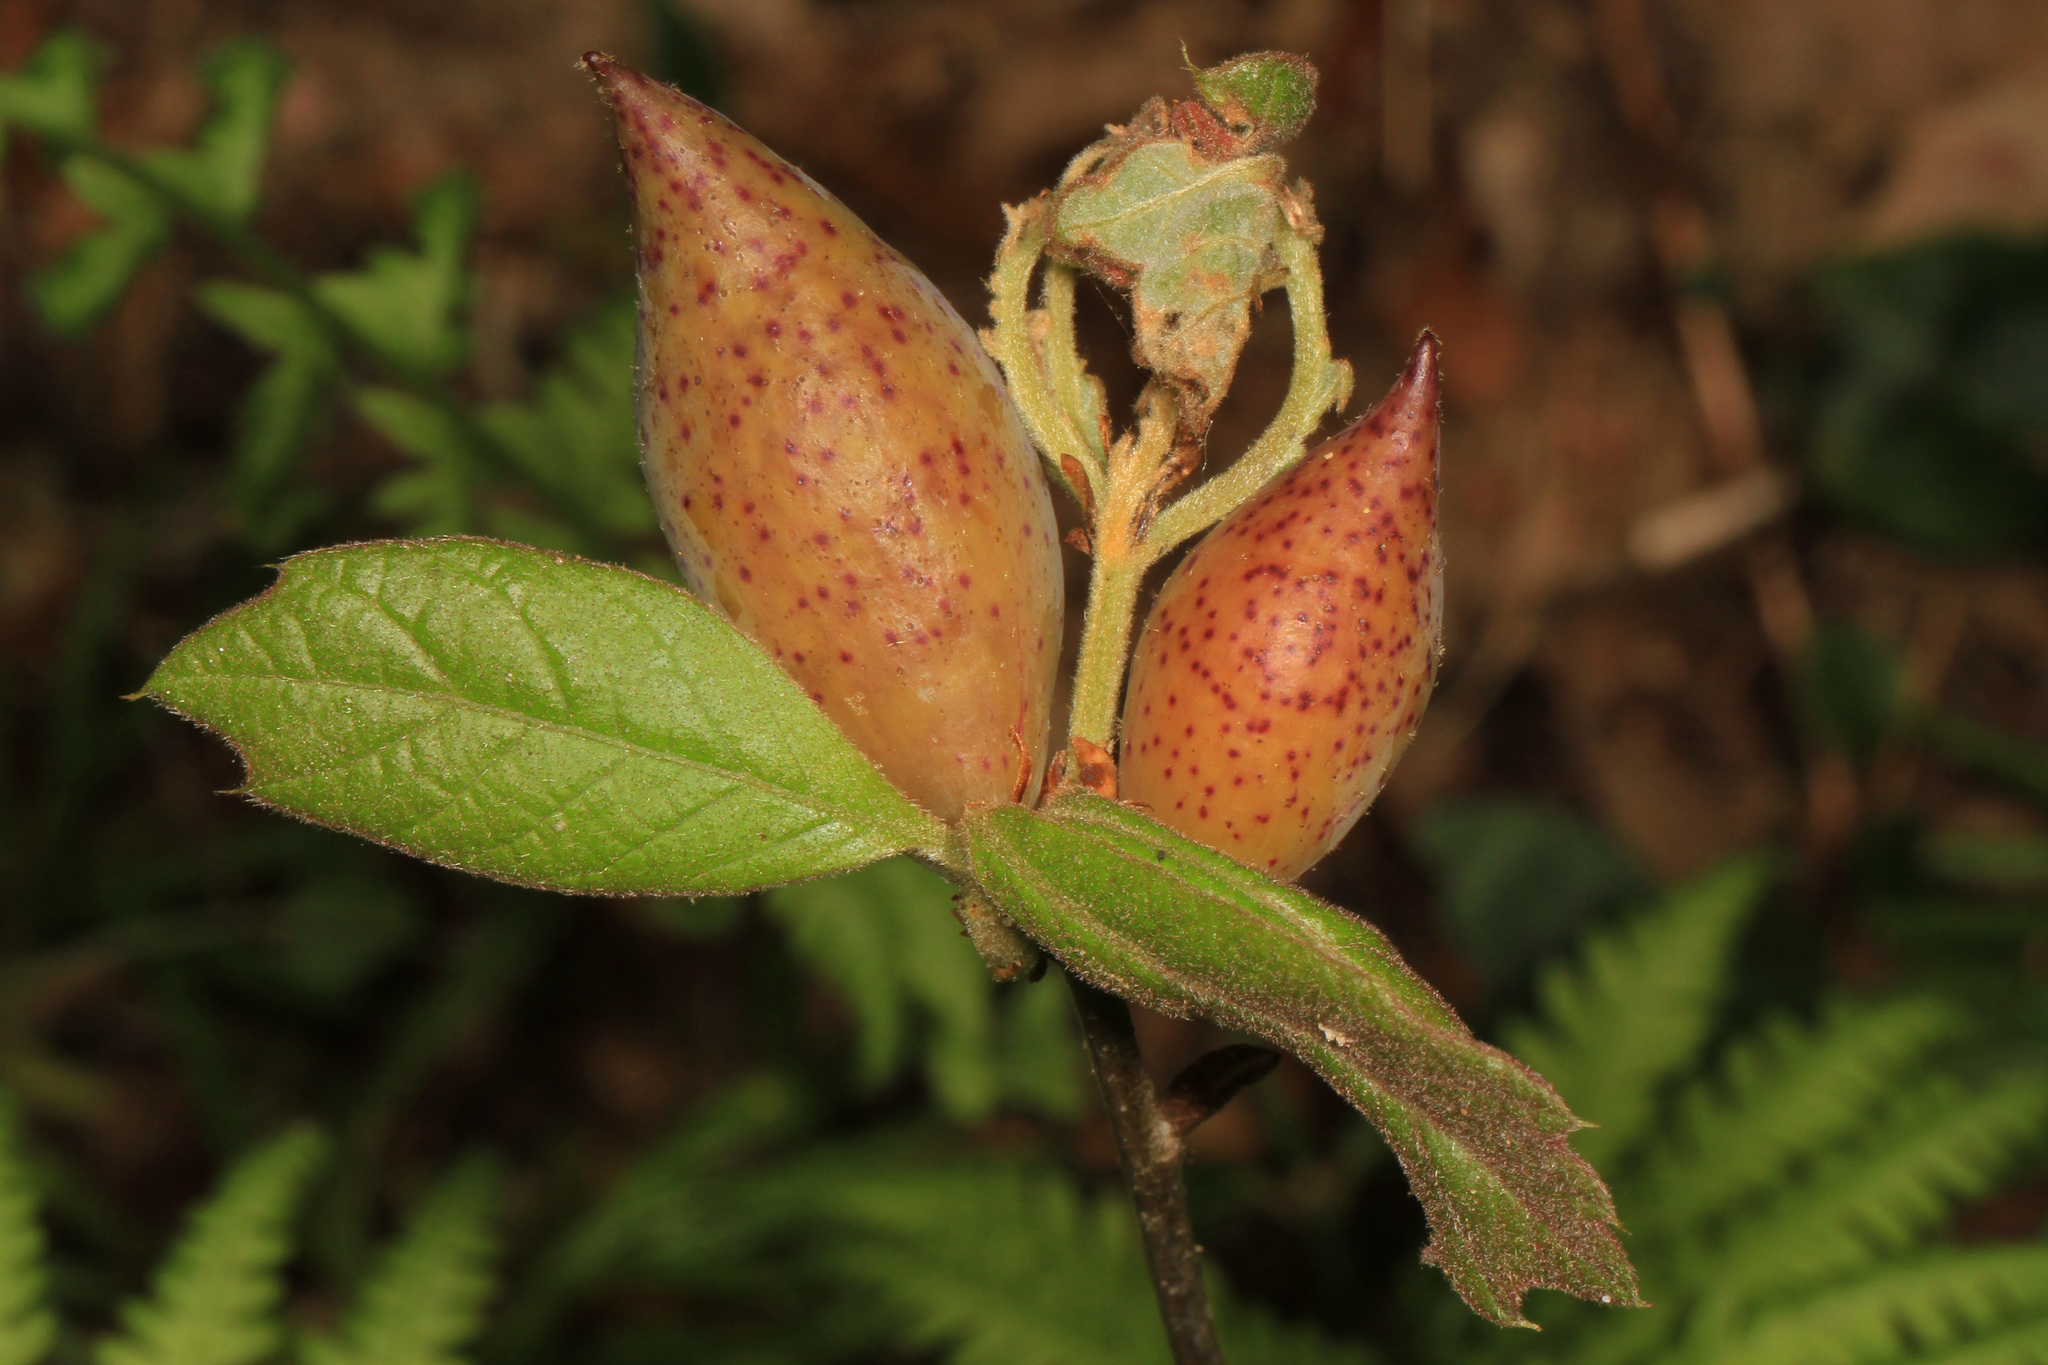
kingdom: Animalia
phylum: Arthropoda
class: Insecta
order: Hymenoptera
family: Cynipidae
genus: Amphibolips
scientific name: Amphibolips
